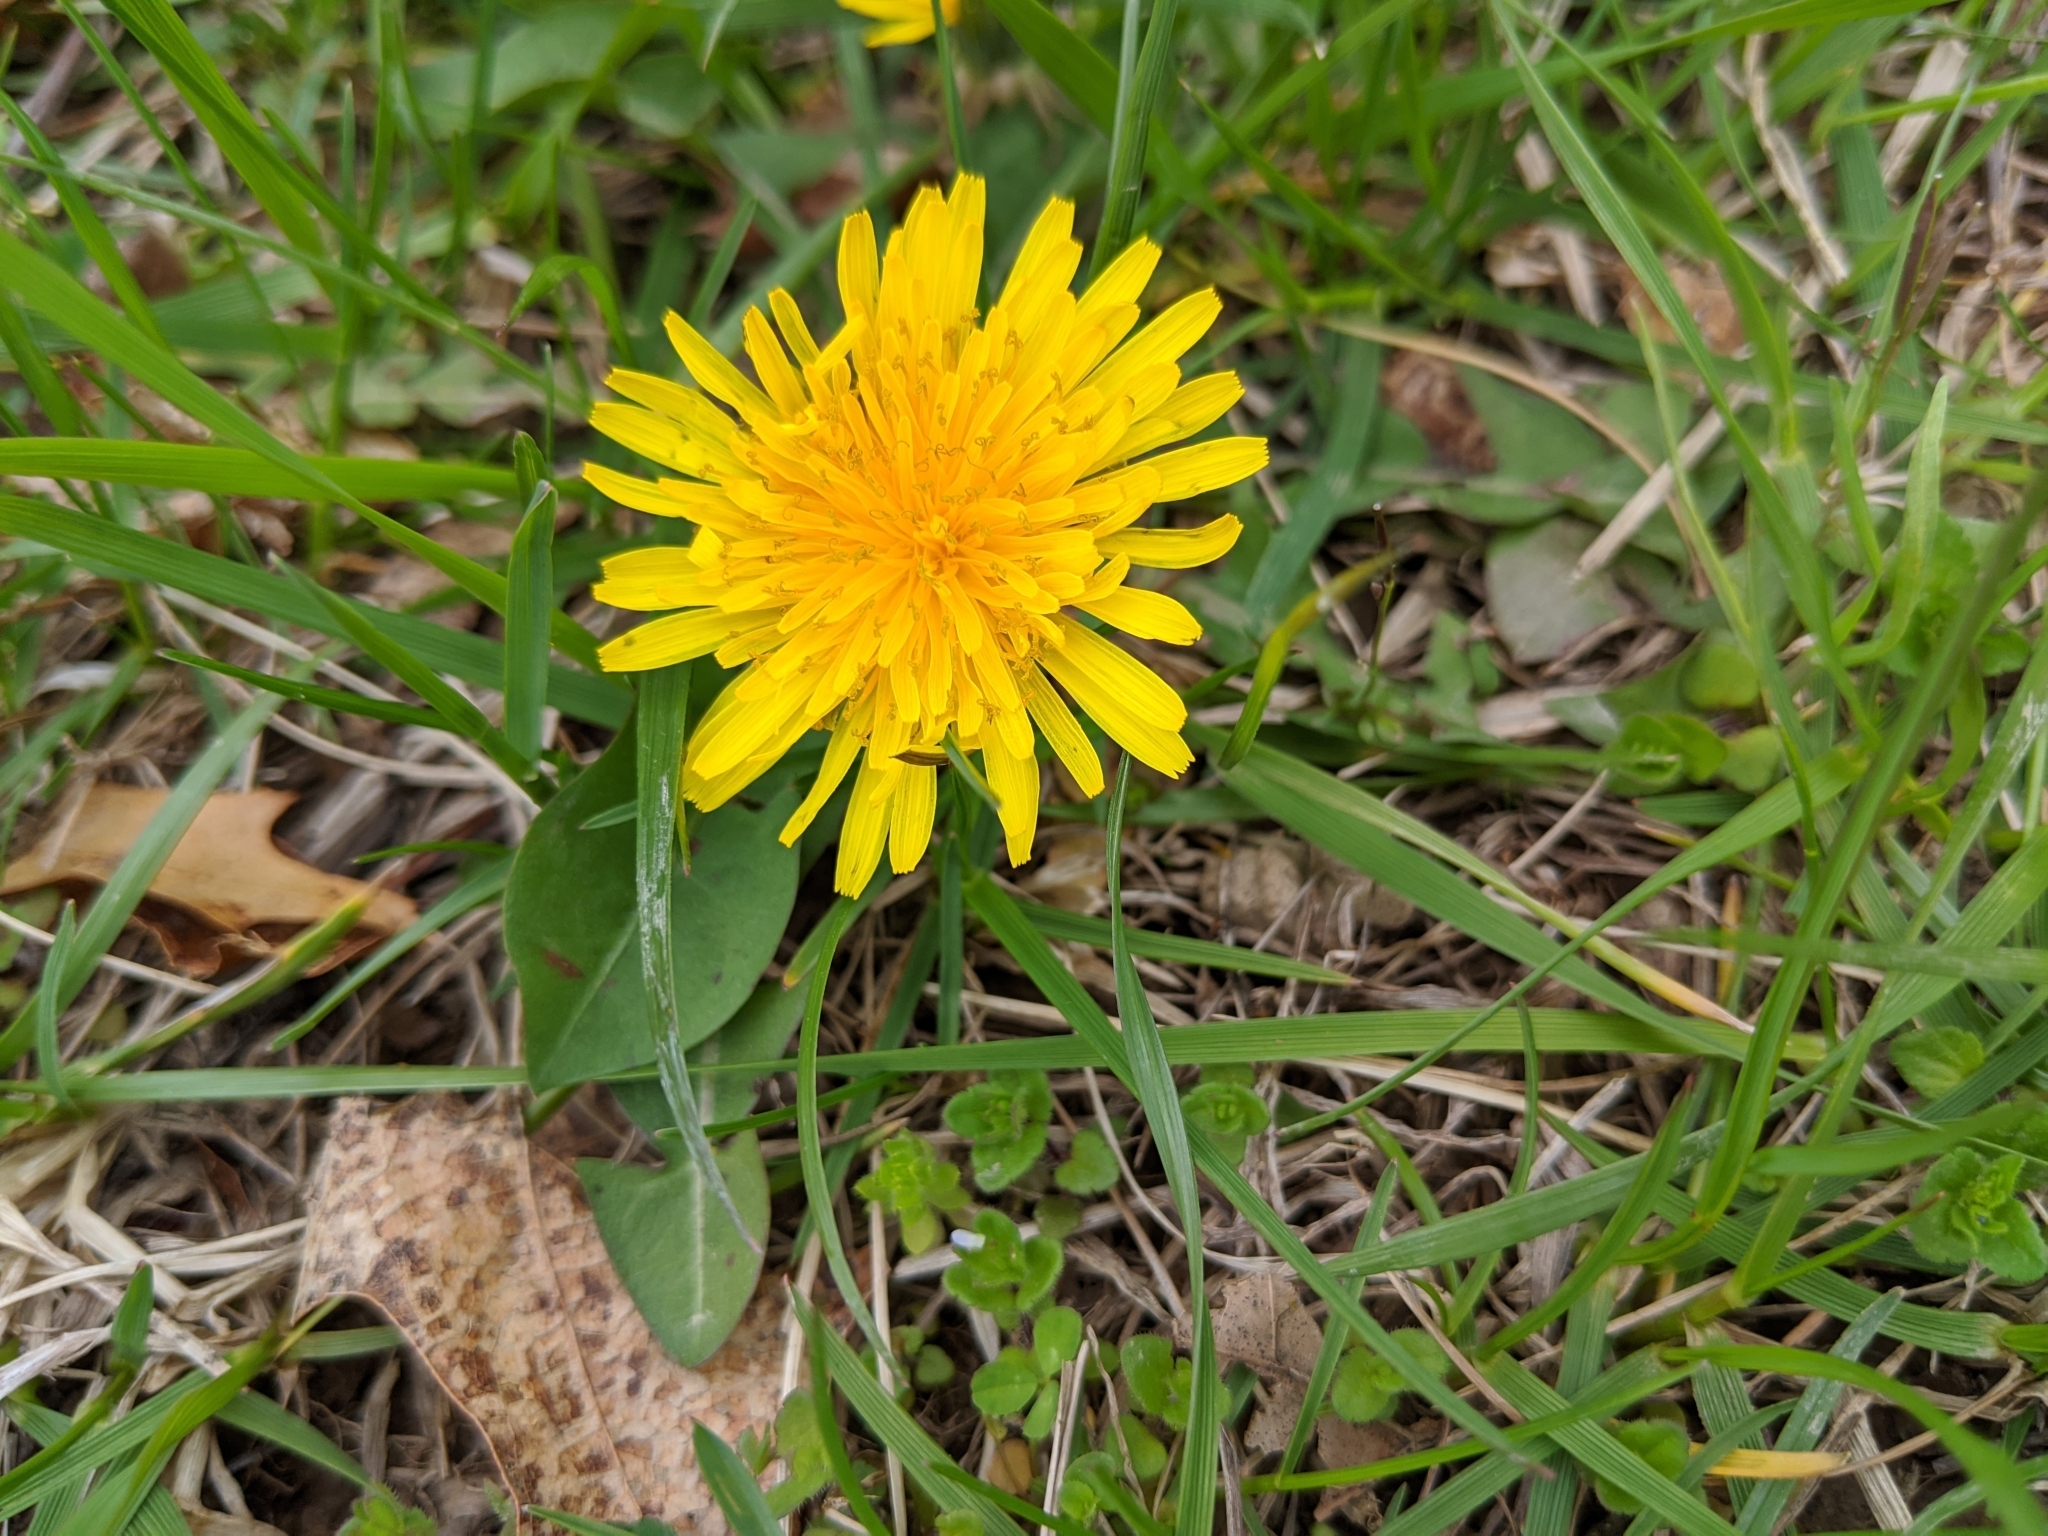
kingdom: Plantae
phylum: Tracheophyta
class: Magnoliopsida
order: Asterales
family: Asteraceae
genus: Taraxacum
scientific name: Taraxacum officinale
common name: Common dandelion
